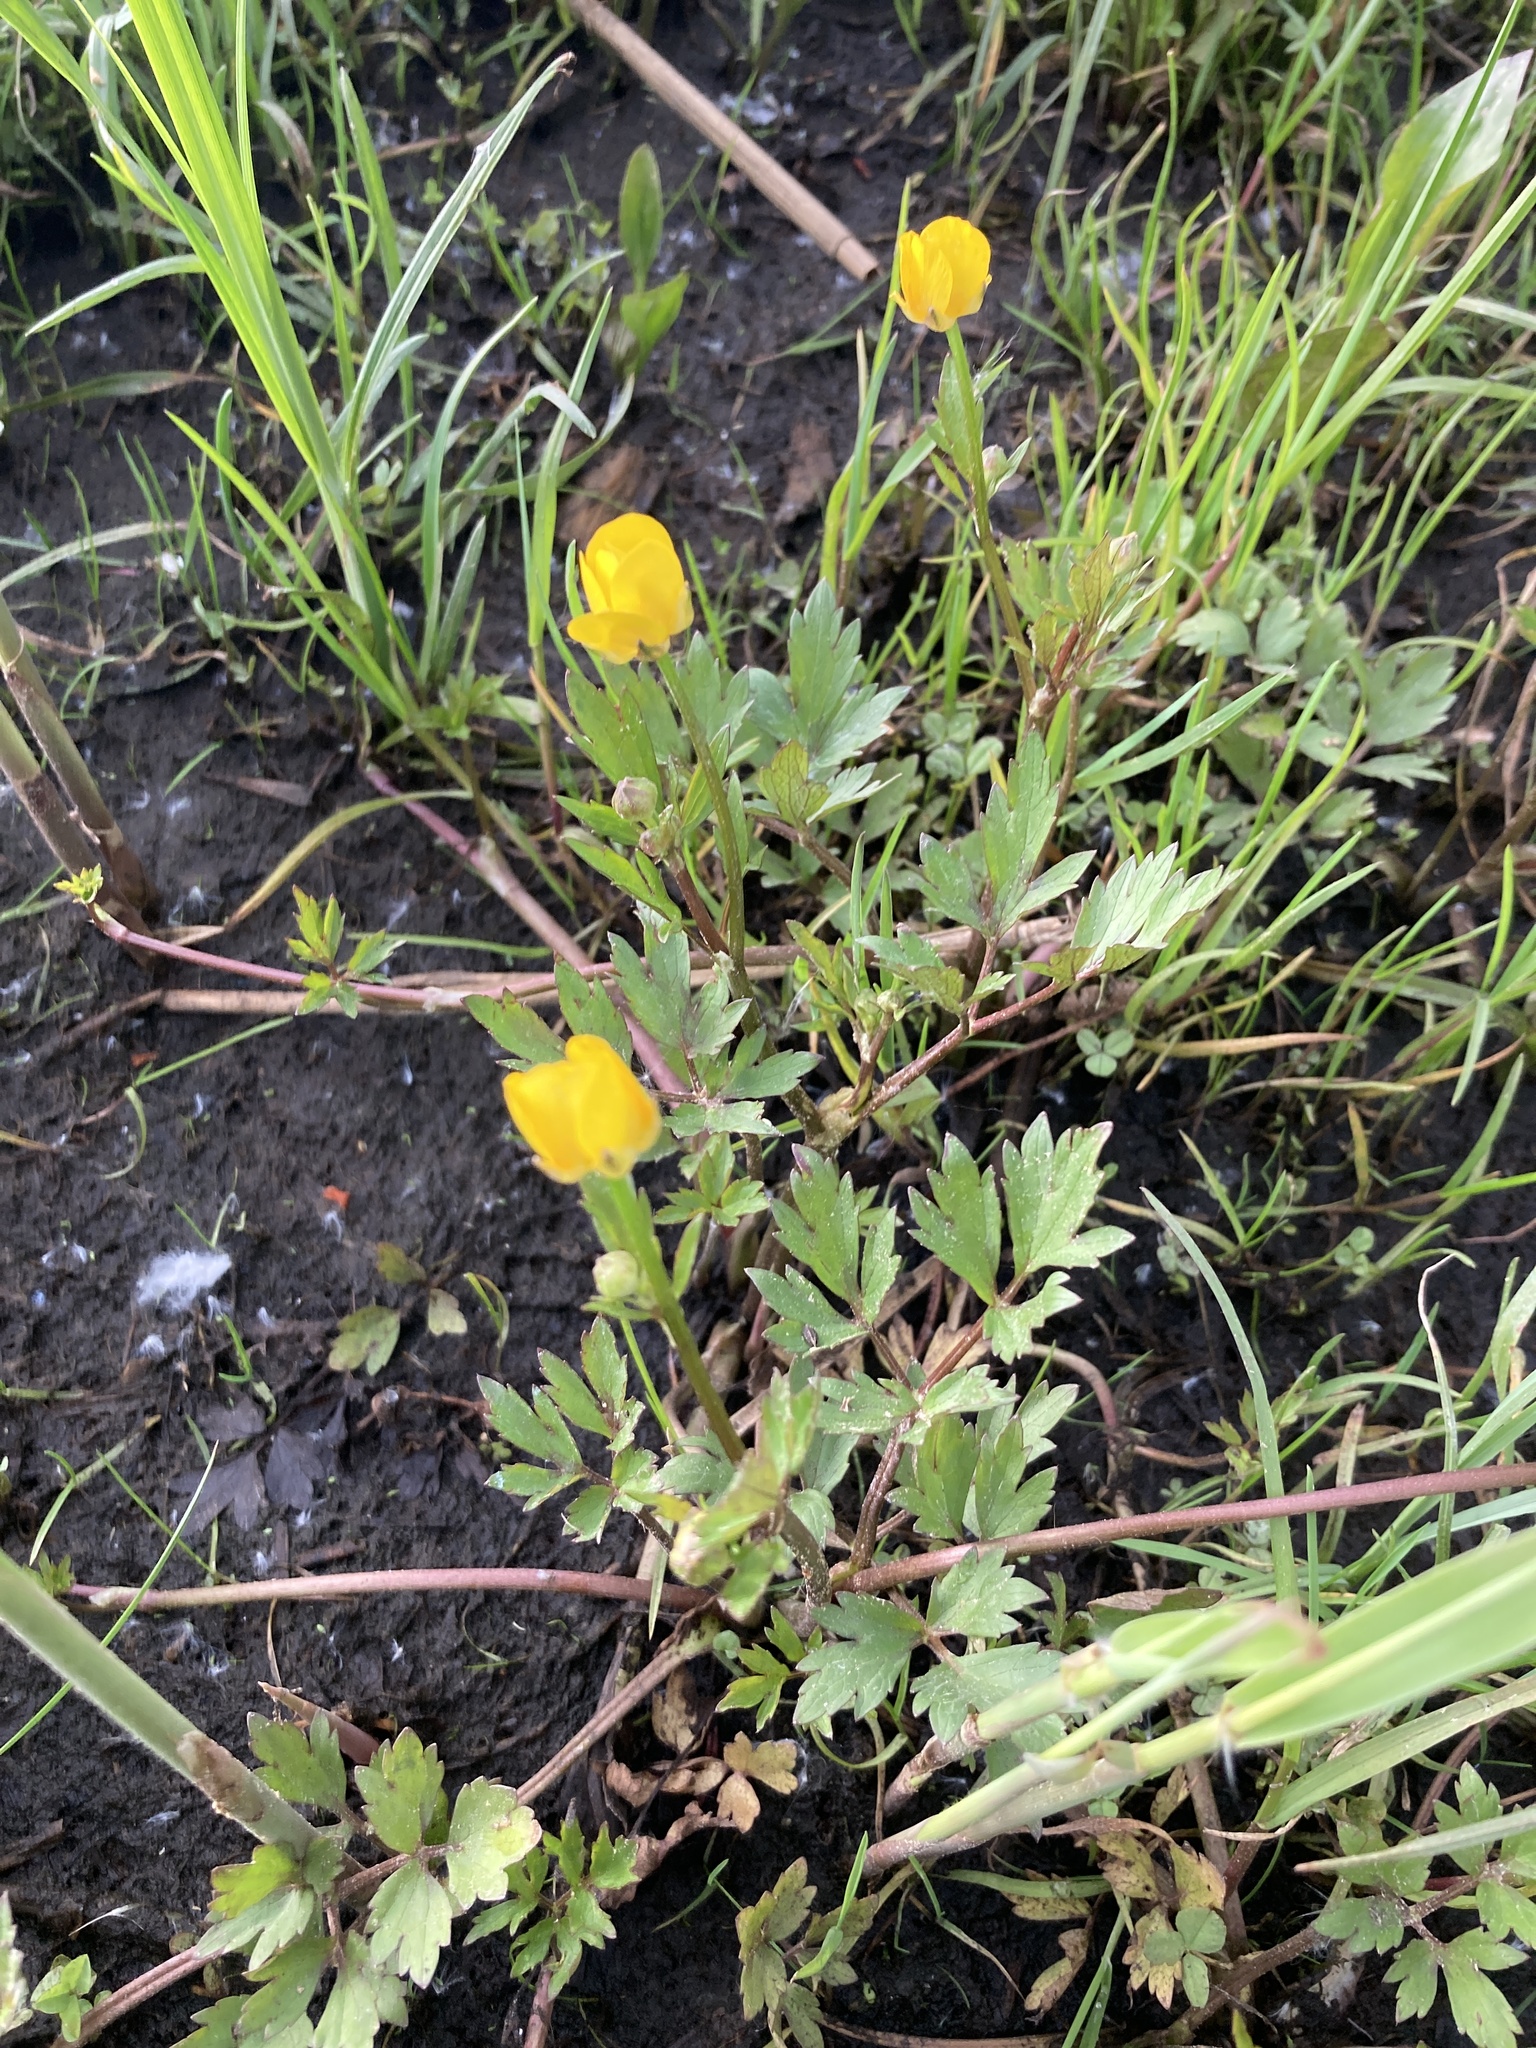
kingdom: Plantae
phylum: Tracheophyta
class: Magnoliopsida
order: Ranunculales
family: Ranunculaceae
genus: Ranunculus
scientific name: Ranunculus repens
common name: Creeping buttercup
